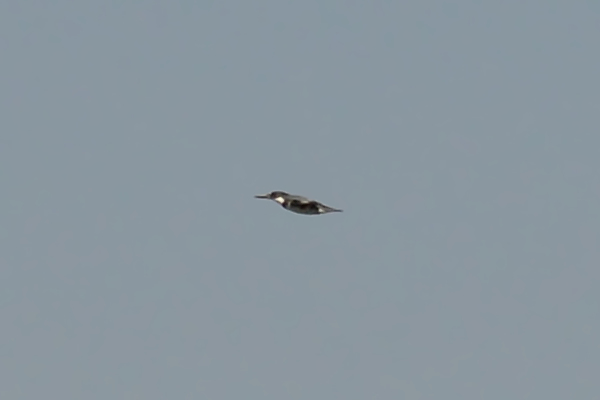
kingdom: Animalia
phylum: Chordata
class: Aves
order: Coraciiformes
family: Alcedinidae
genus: Megaceryle
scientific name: Megaceryle alcyon
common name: Belted kingfisher
